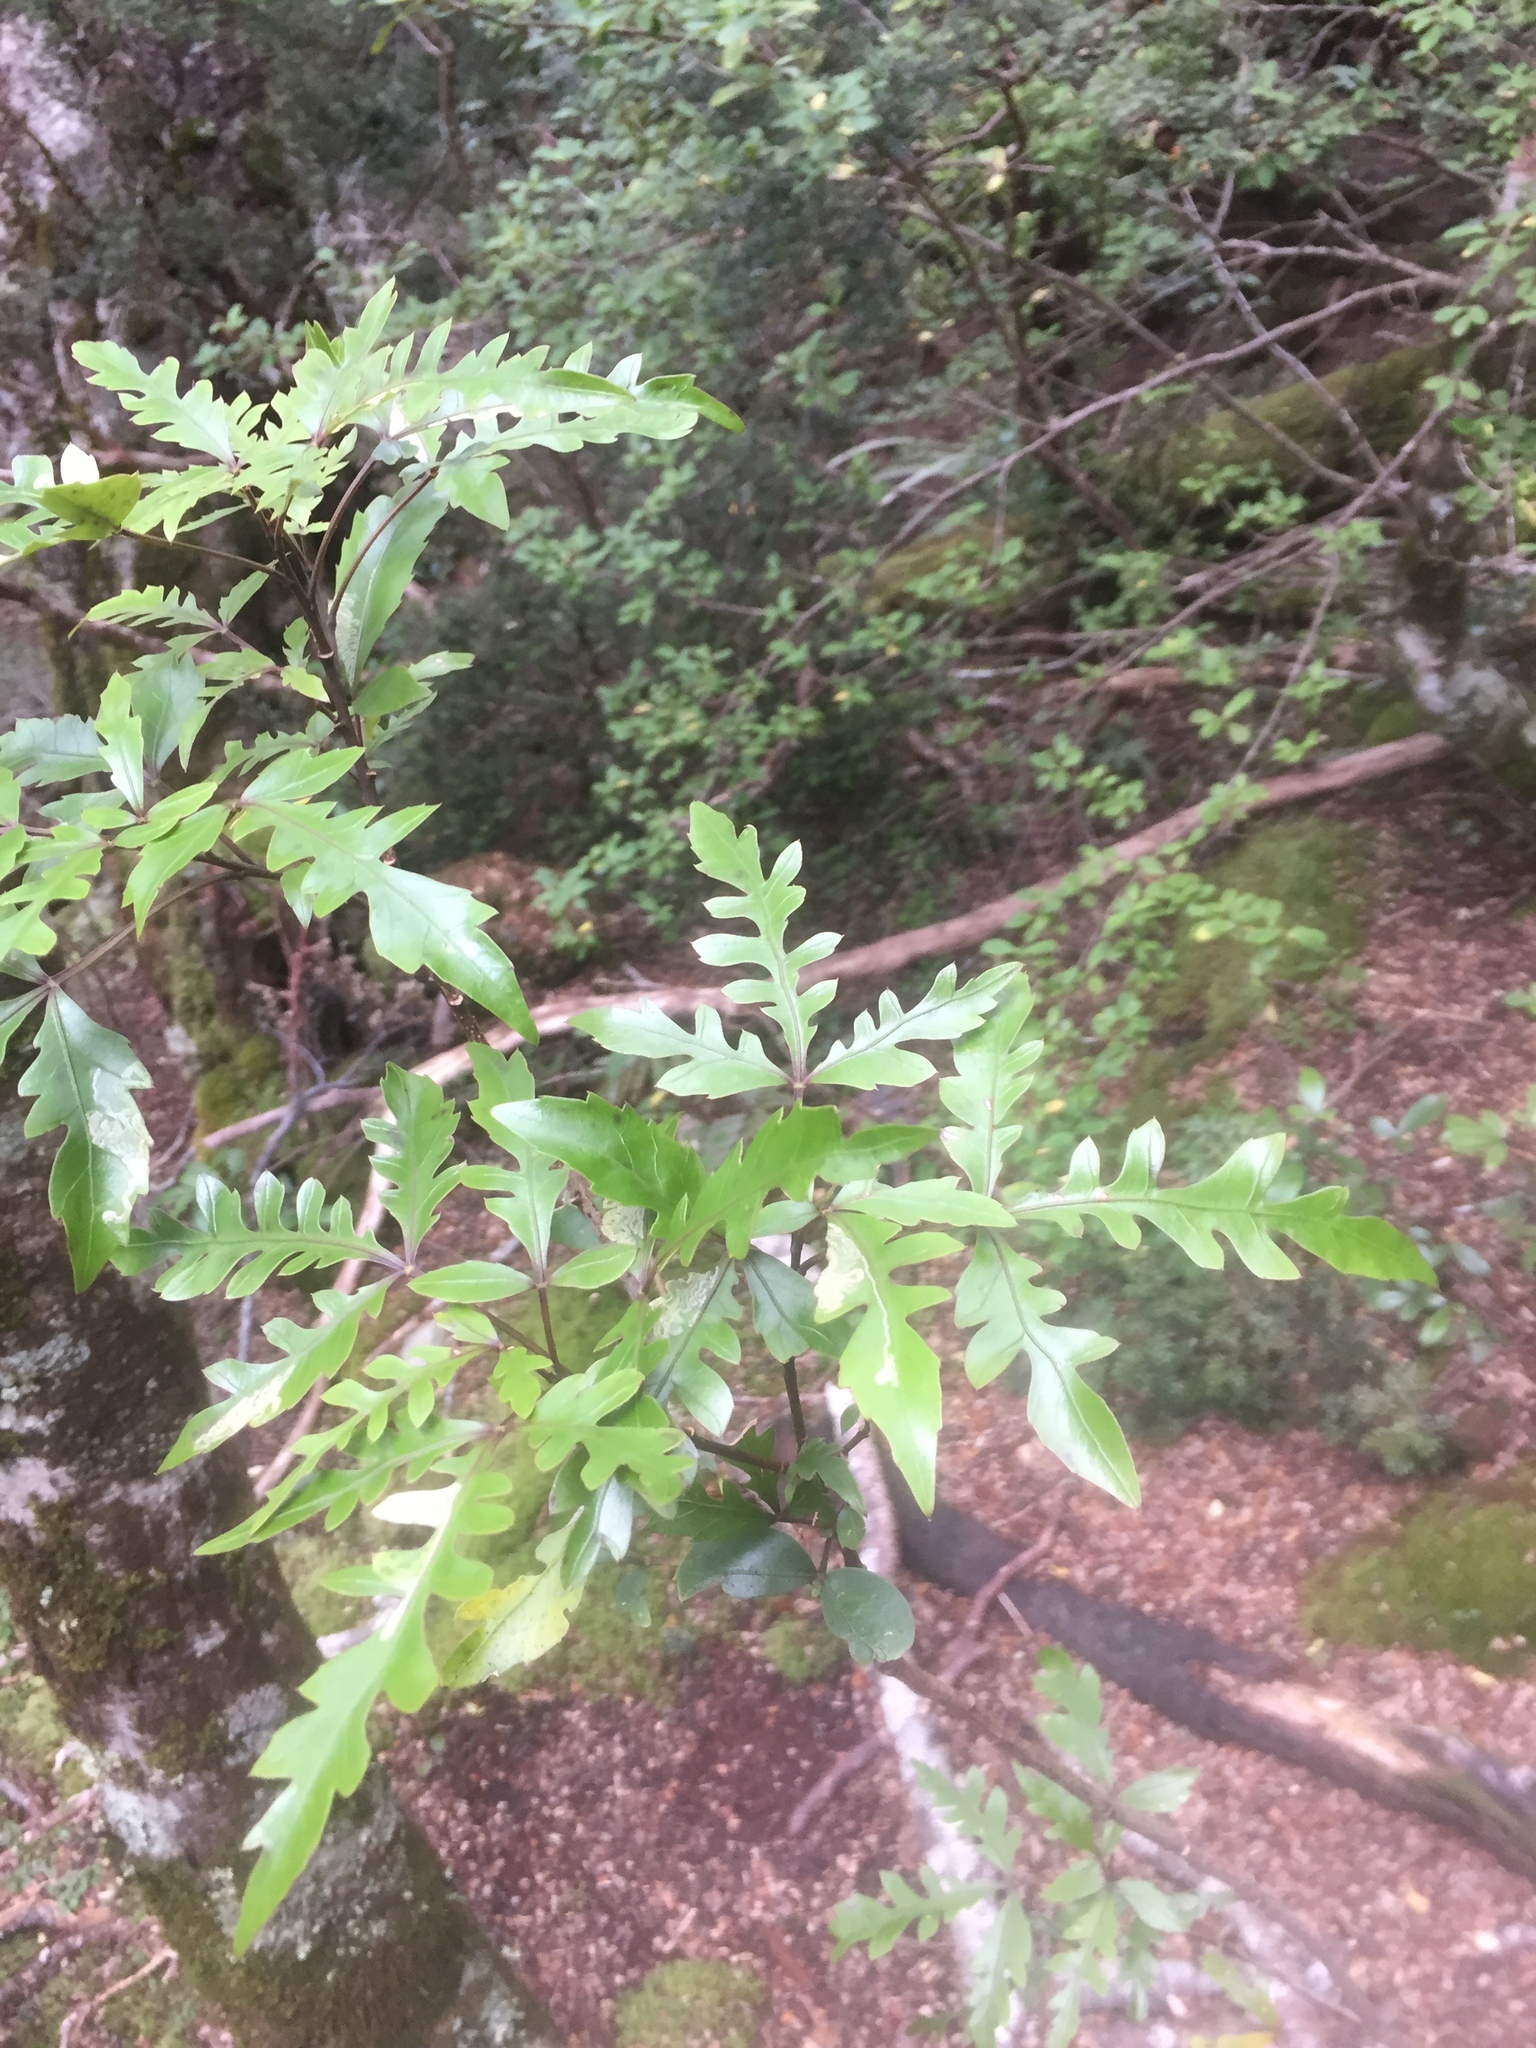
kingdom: Plantae
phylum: Tracheophyta
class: Magnoliopsida
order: Apiales
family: Araliaceae
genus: Raukaua
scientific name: Raukaua simplex
